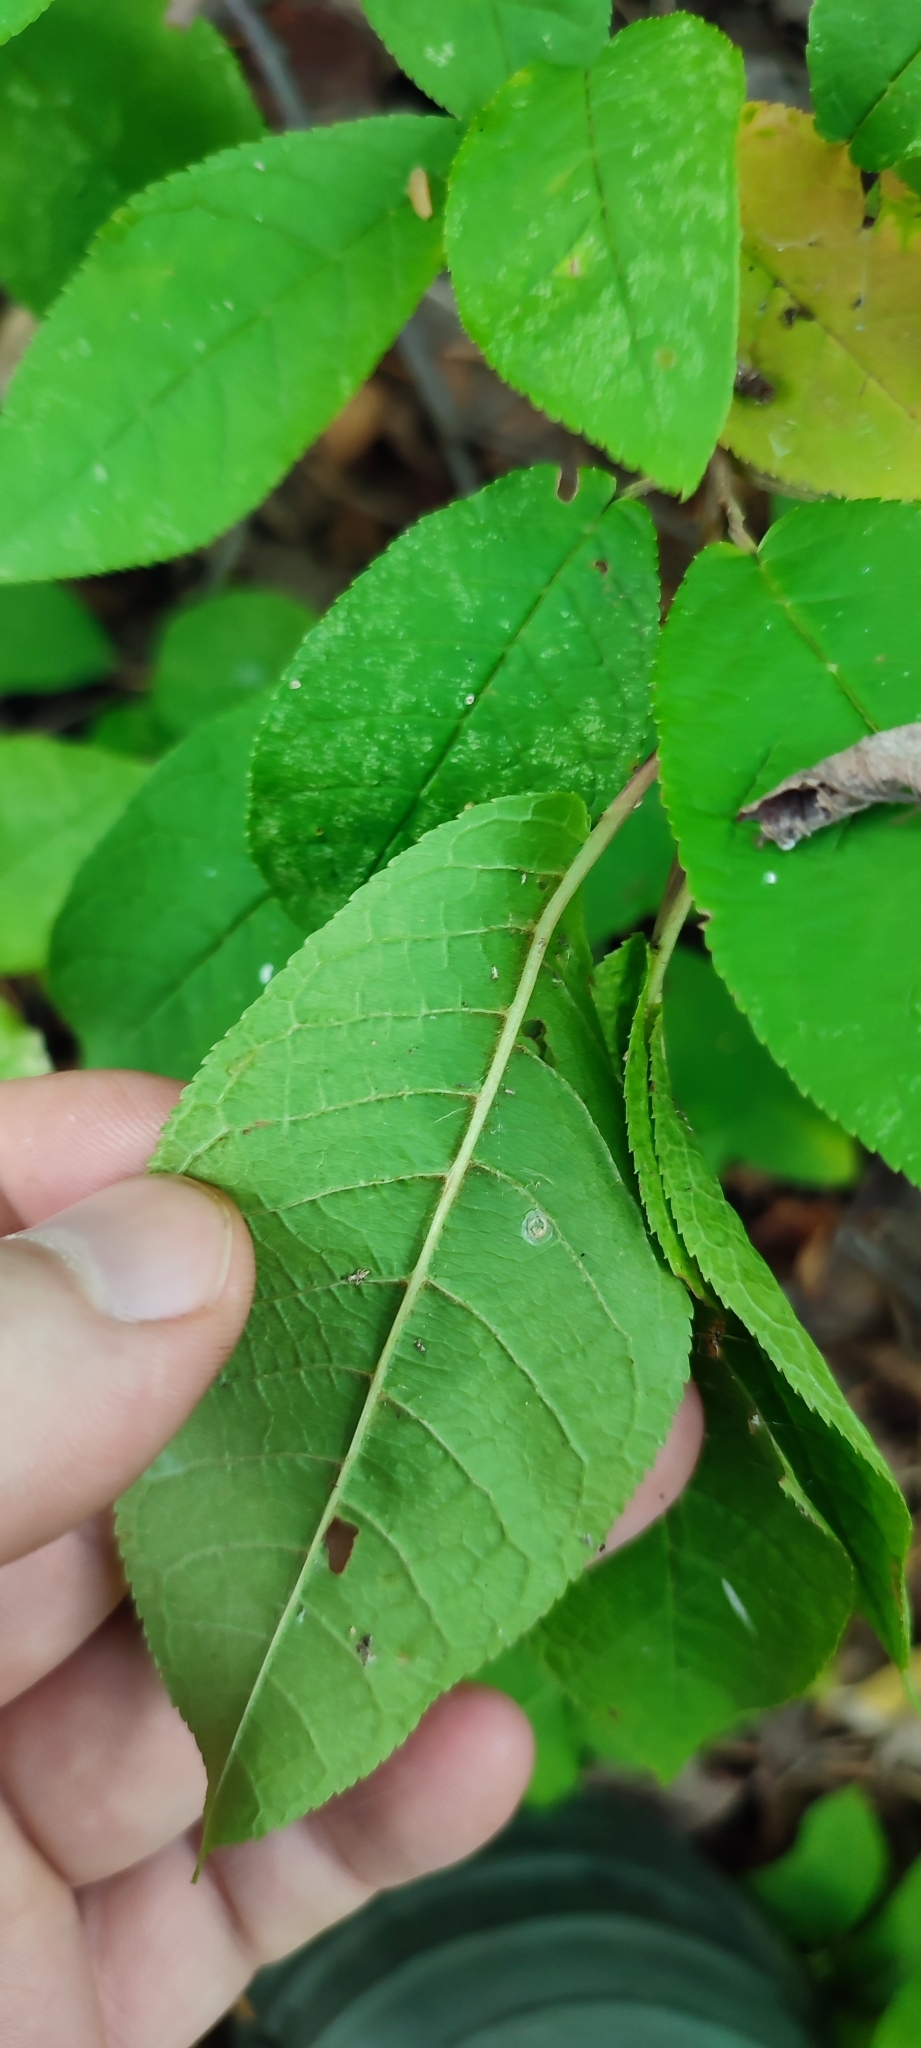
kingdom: Plantae
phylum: Tracheophyta
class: Magnoliopsida
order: Rosales
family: Rosaceae
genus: Prunus
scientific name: Prunus padus
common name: Bird cherry
